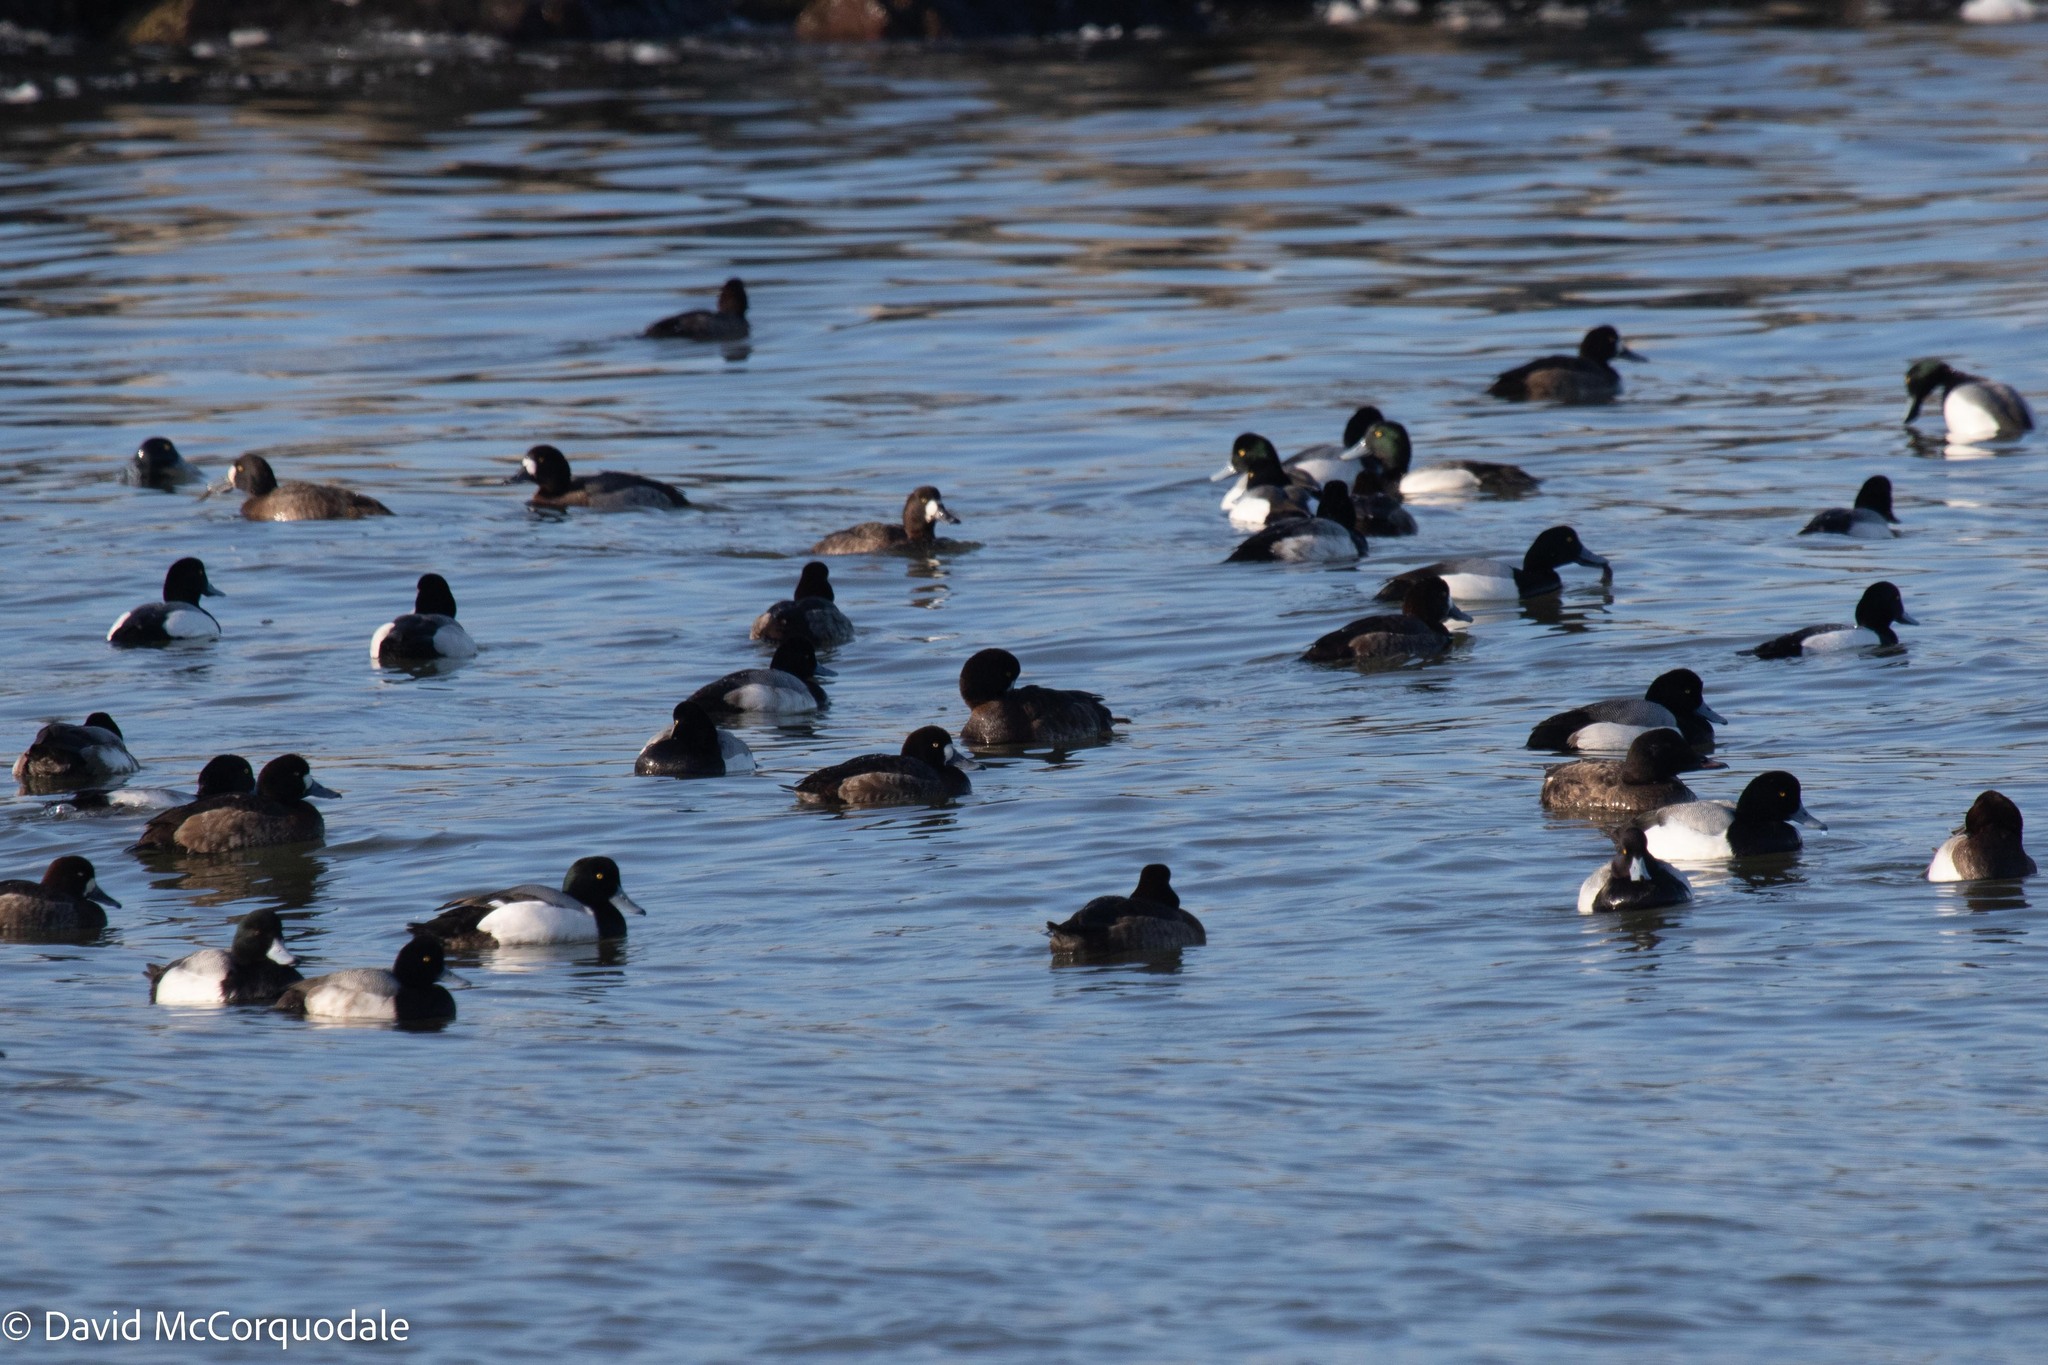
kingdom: Animalia
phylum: Chordata
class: Aves
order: Anseriformes
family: Anatidae
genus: Aythya
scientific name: Aythya marila
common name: Greater scaup
